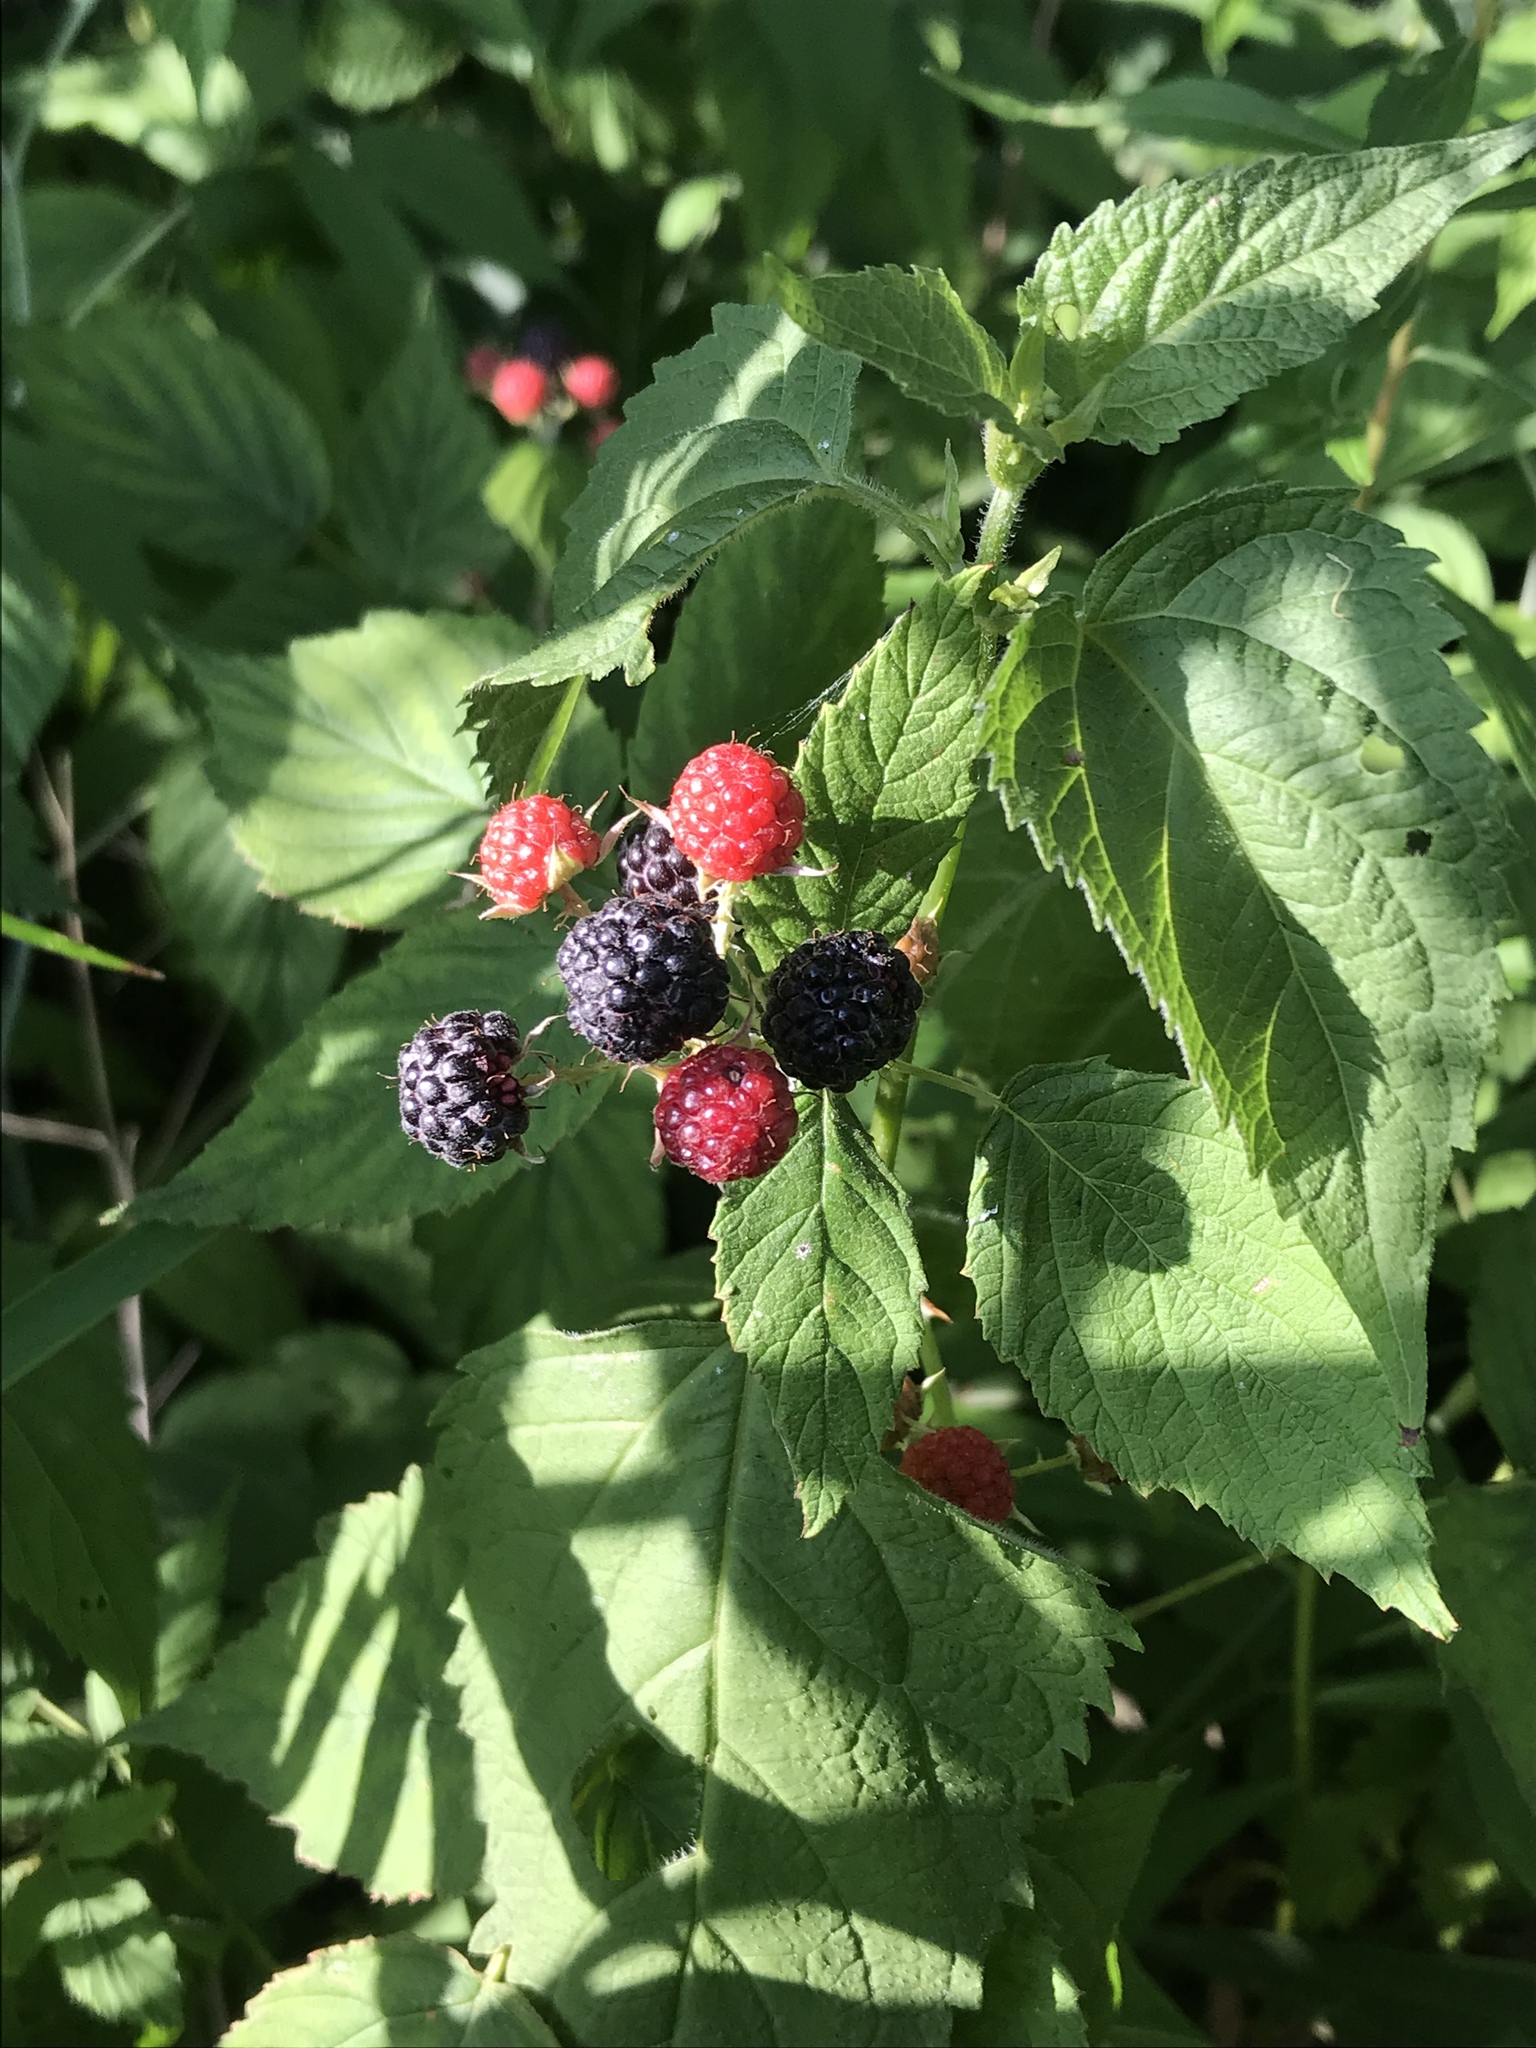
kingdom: Plantae
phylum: Tracheophyta
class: Magnoliopsida
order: Rosales
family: Rosaceae
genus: Rubus
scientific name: Rubus occidentalis
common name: Black raspberry
